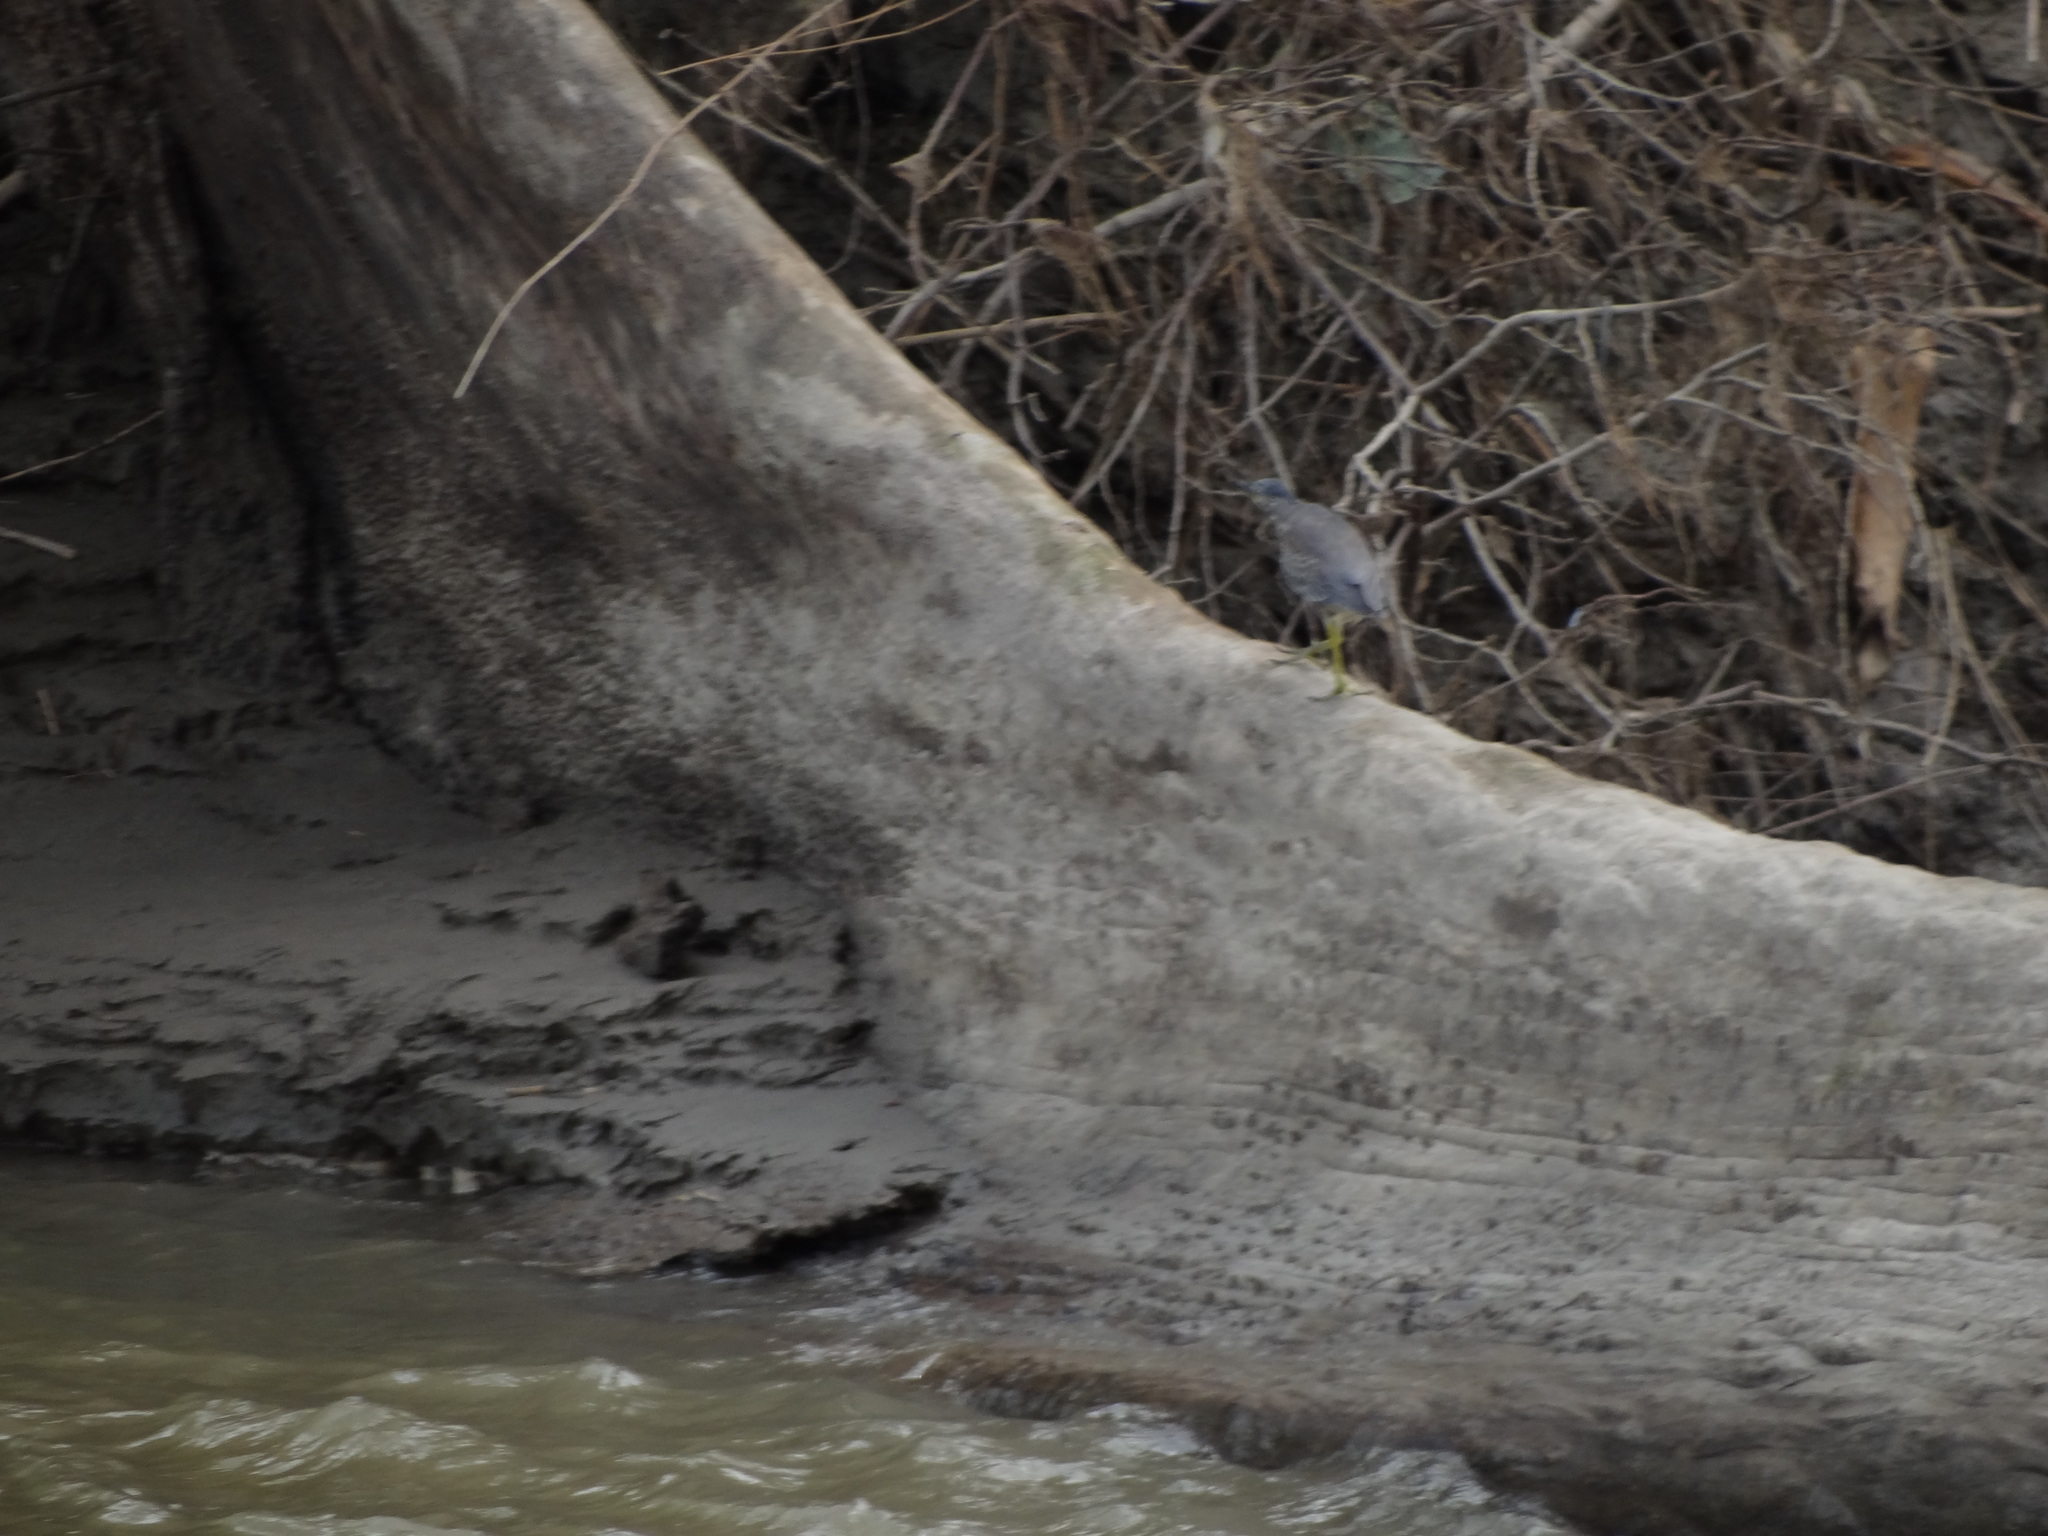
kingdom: Animalia
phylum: Chordata
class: Aves
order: Pelecaniformes
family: Ardeidae
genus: Butorides
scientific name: Butorides striata
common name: Striated heron
